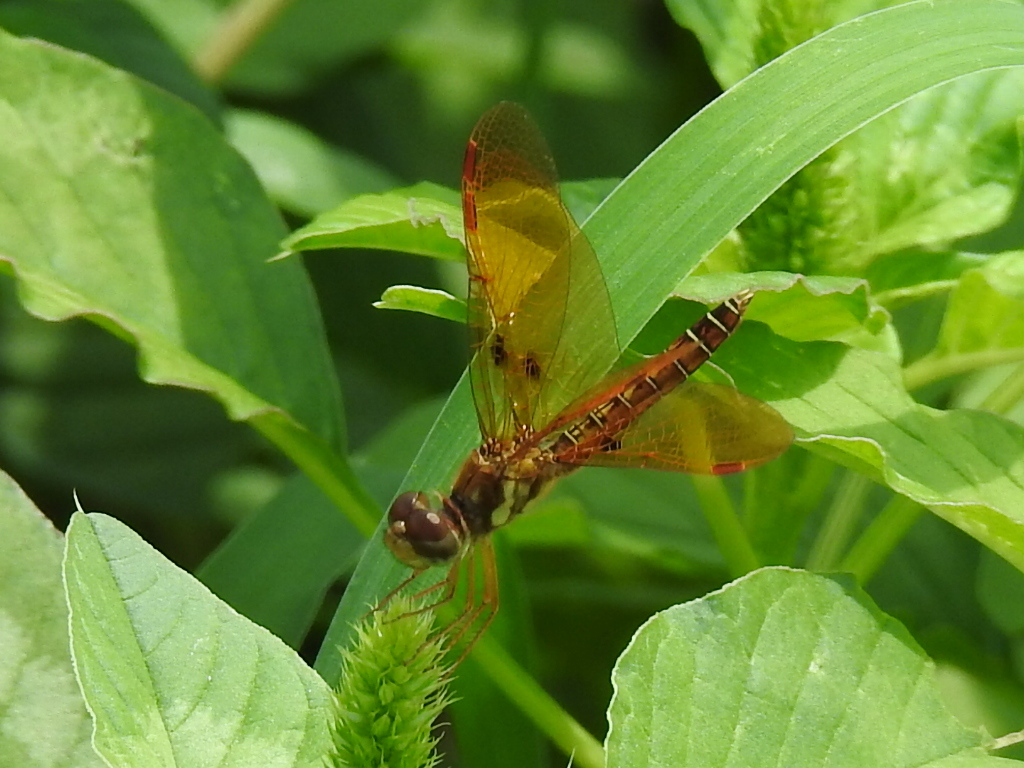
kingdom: Animalia
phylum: Arthropoda
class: Insecta
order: Odonata
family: Libellulidae
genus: Perithemis
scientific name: Perithemis tenera
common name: Eastern amberwing
